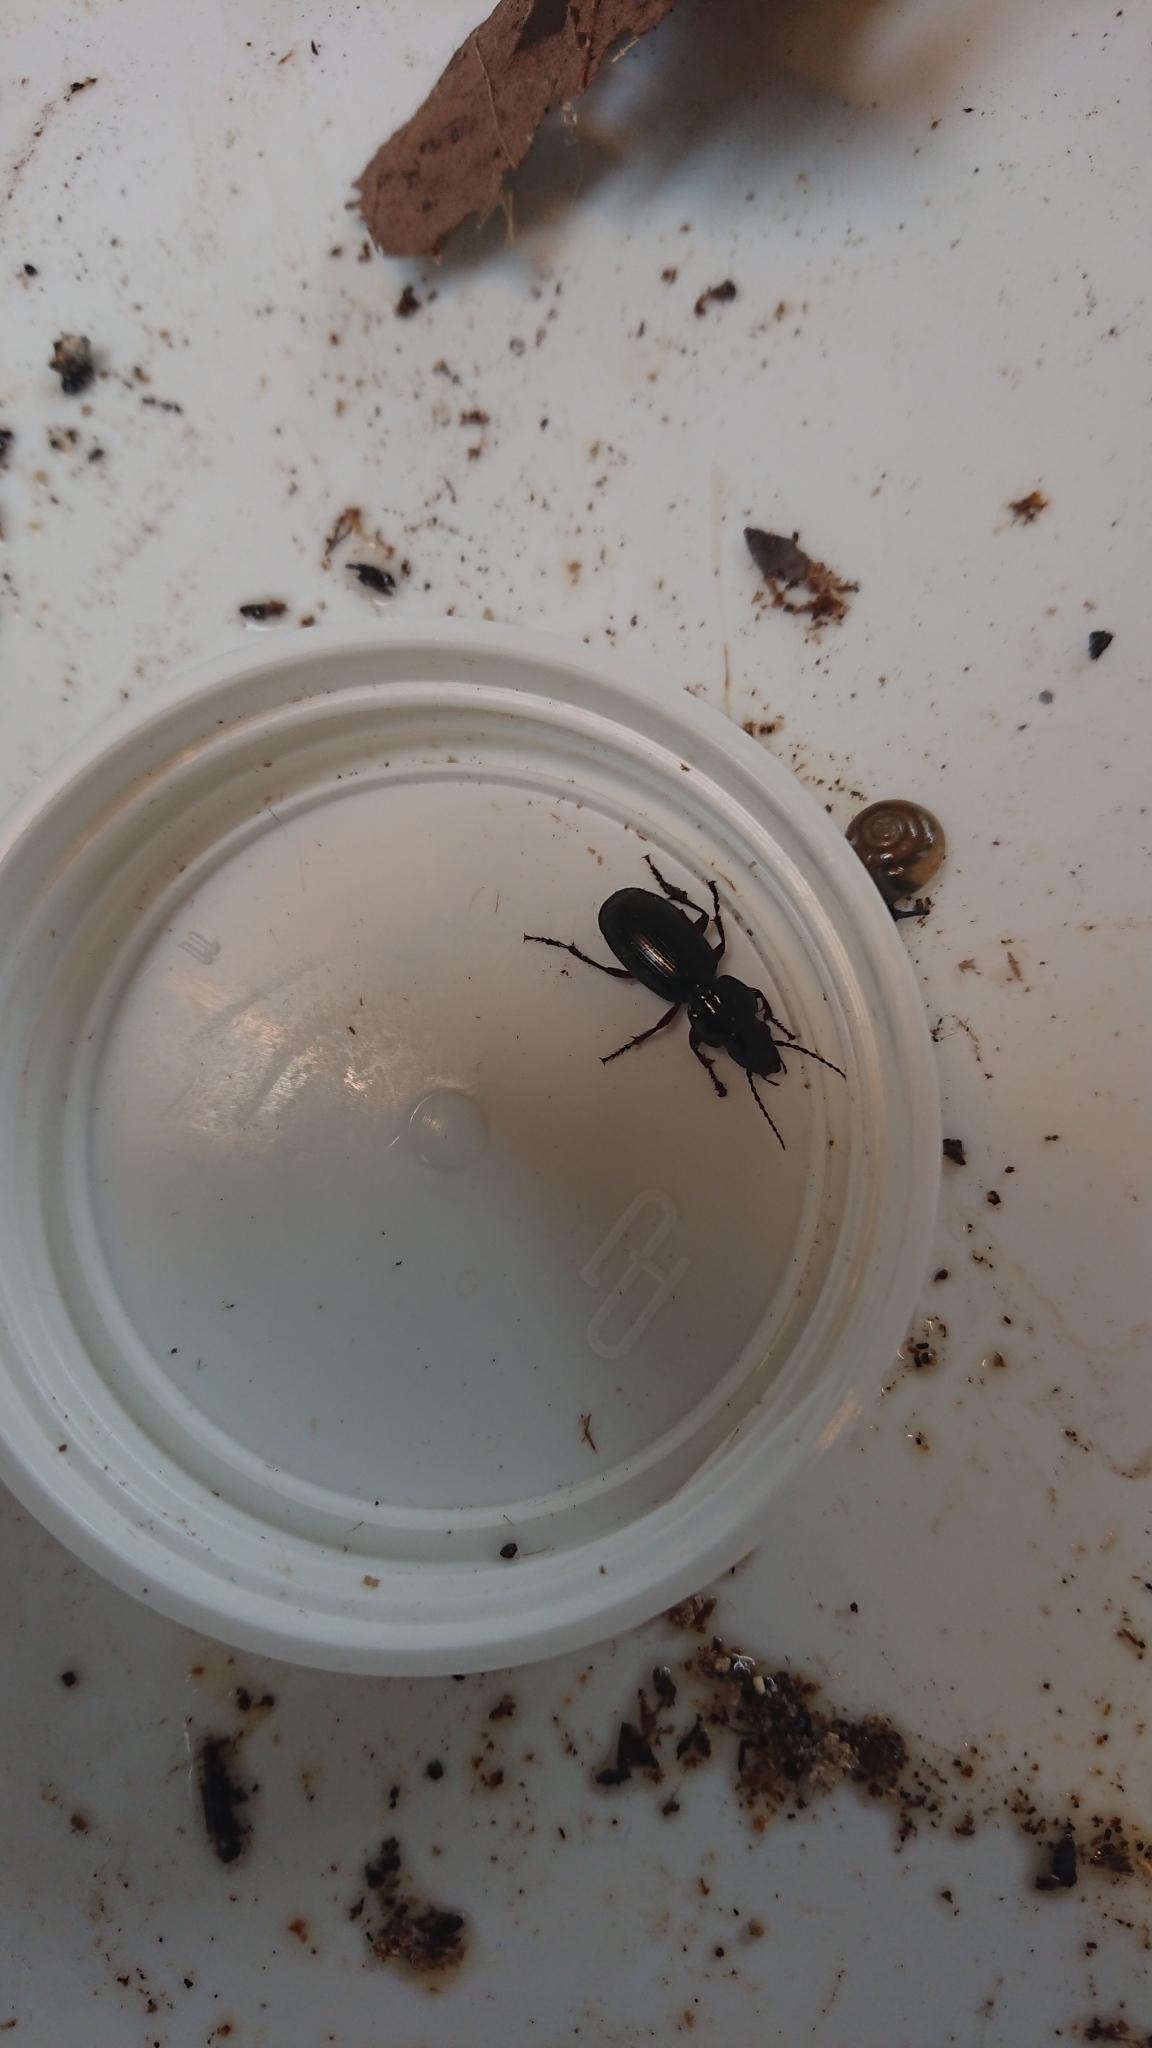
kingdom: Animalia
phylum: Arthropoda
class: Insecta
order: Coleoptera
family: Carabidae
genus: Pterostichus
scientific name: Pterostichus madidus
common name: Black clock
